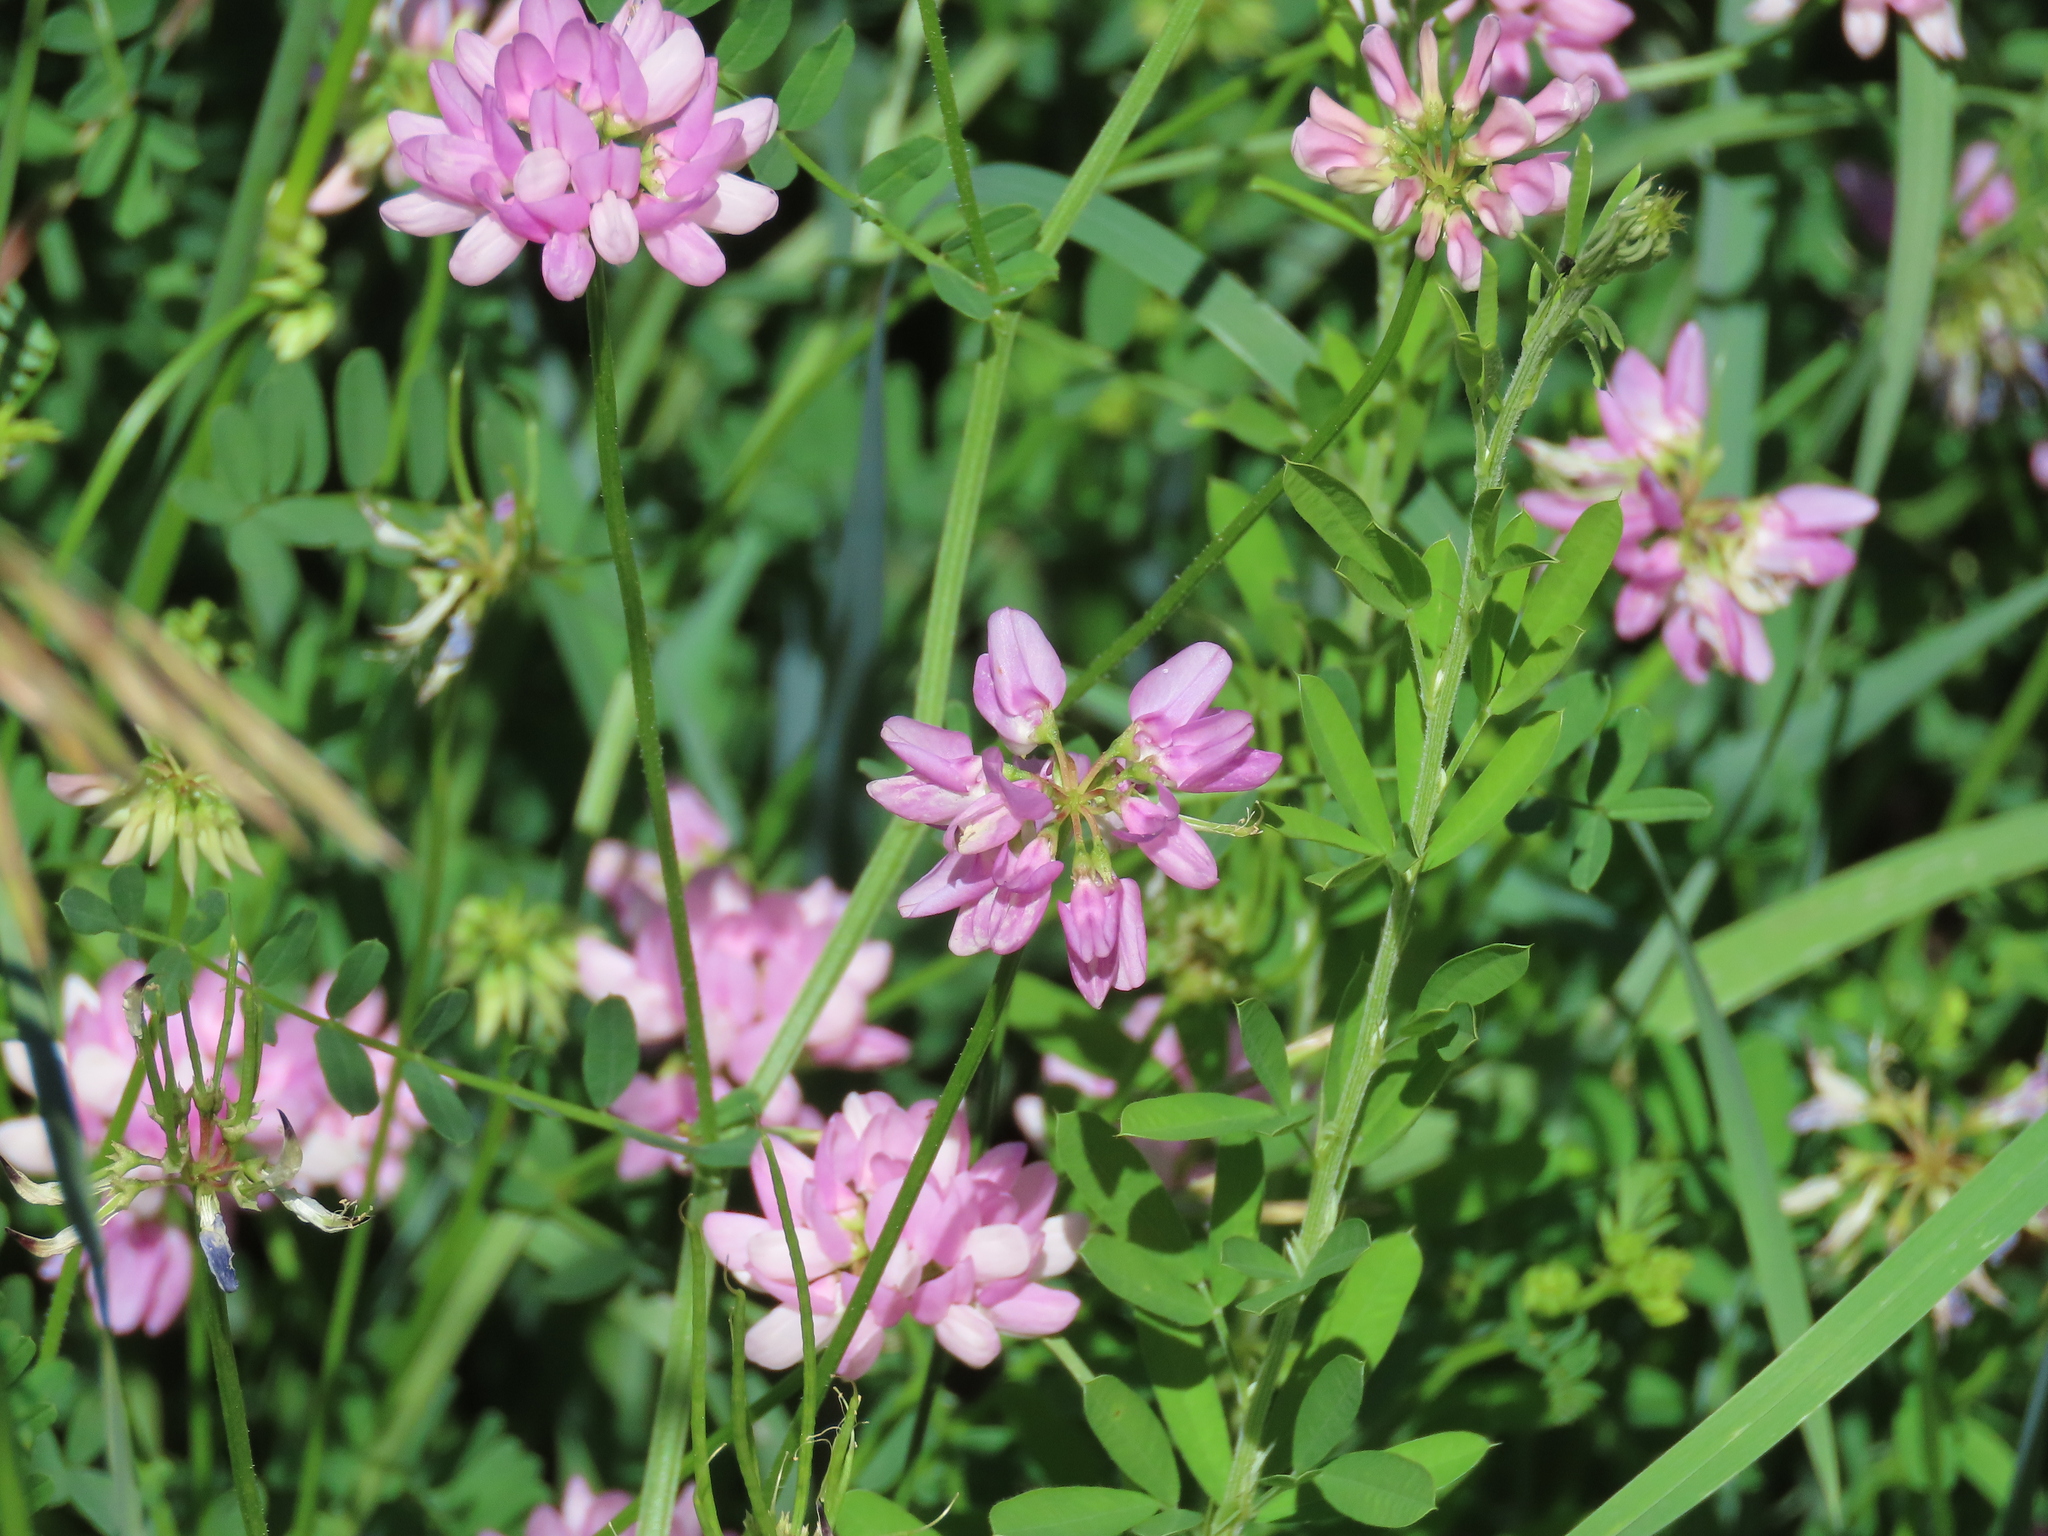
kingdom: Plantae
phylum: Tracheophyta
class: Magnoliopsida
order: Fabales
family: Fabaceae
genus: Coronilla
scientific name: Coronilla varia
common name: Crownvetch
